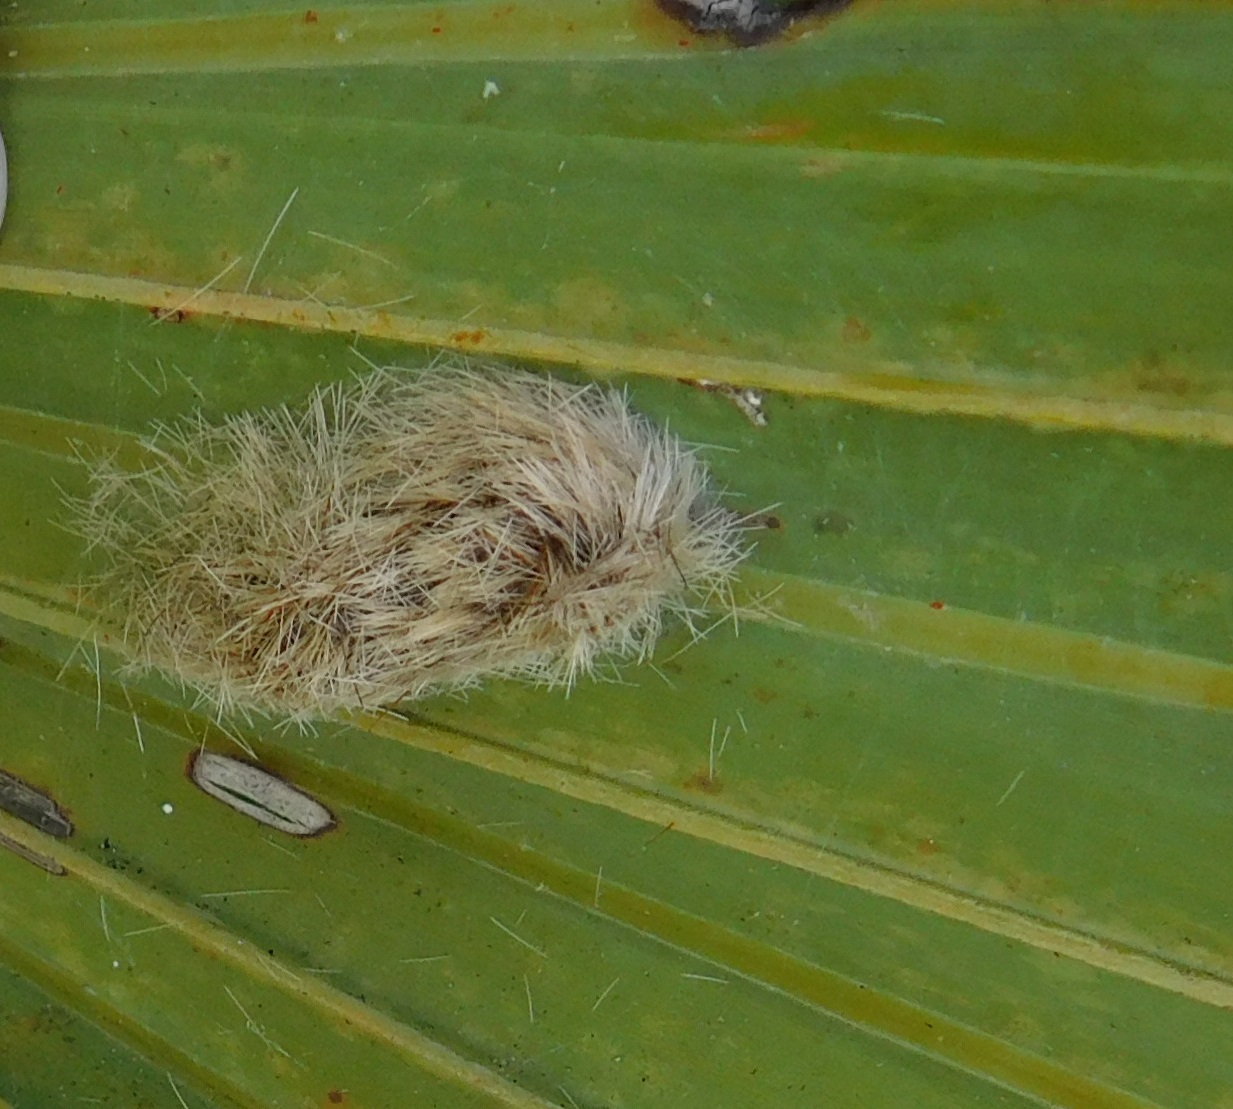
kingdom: Animalia
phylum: Arthropoda
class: Insecta
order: Lepidoptera
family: Erebidae
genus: Lymire
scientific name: Lymire edwardsii
